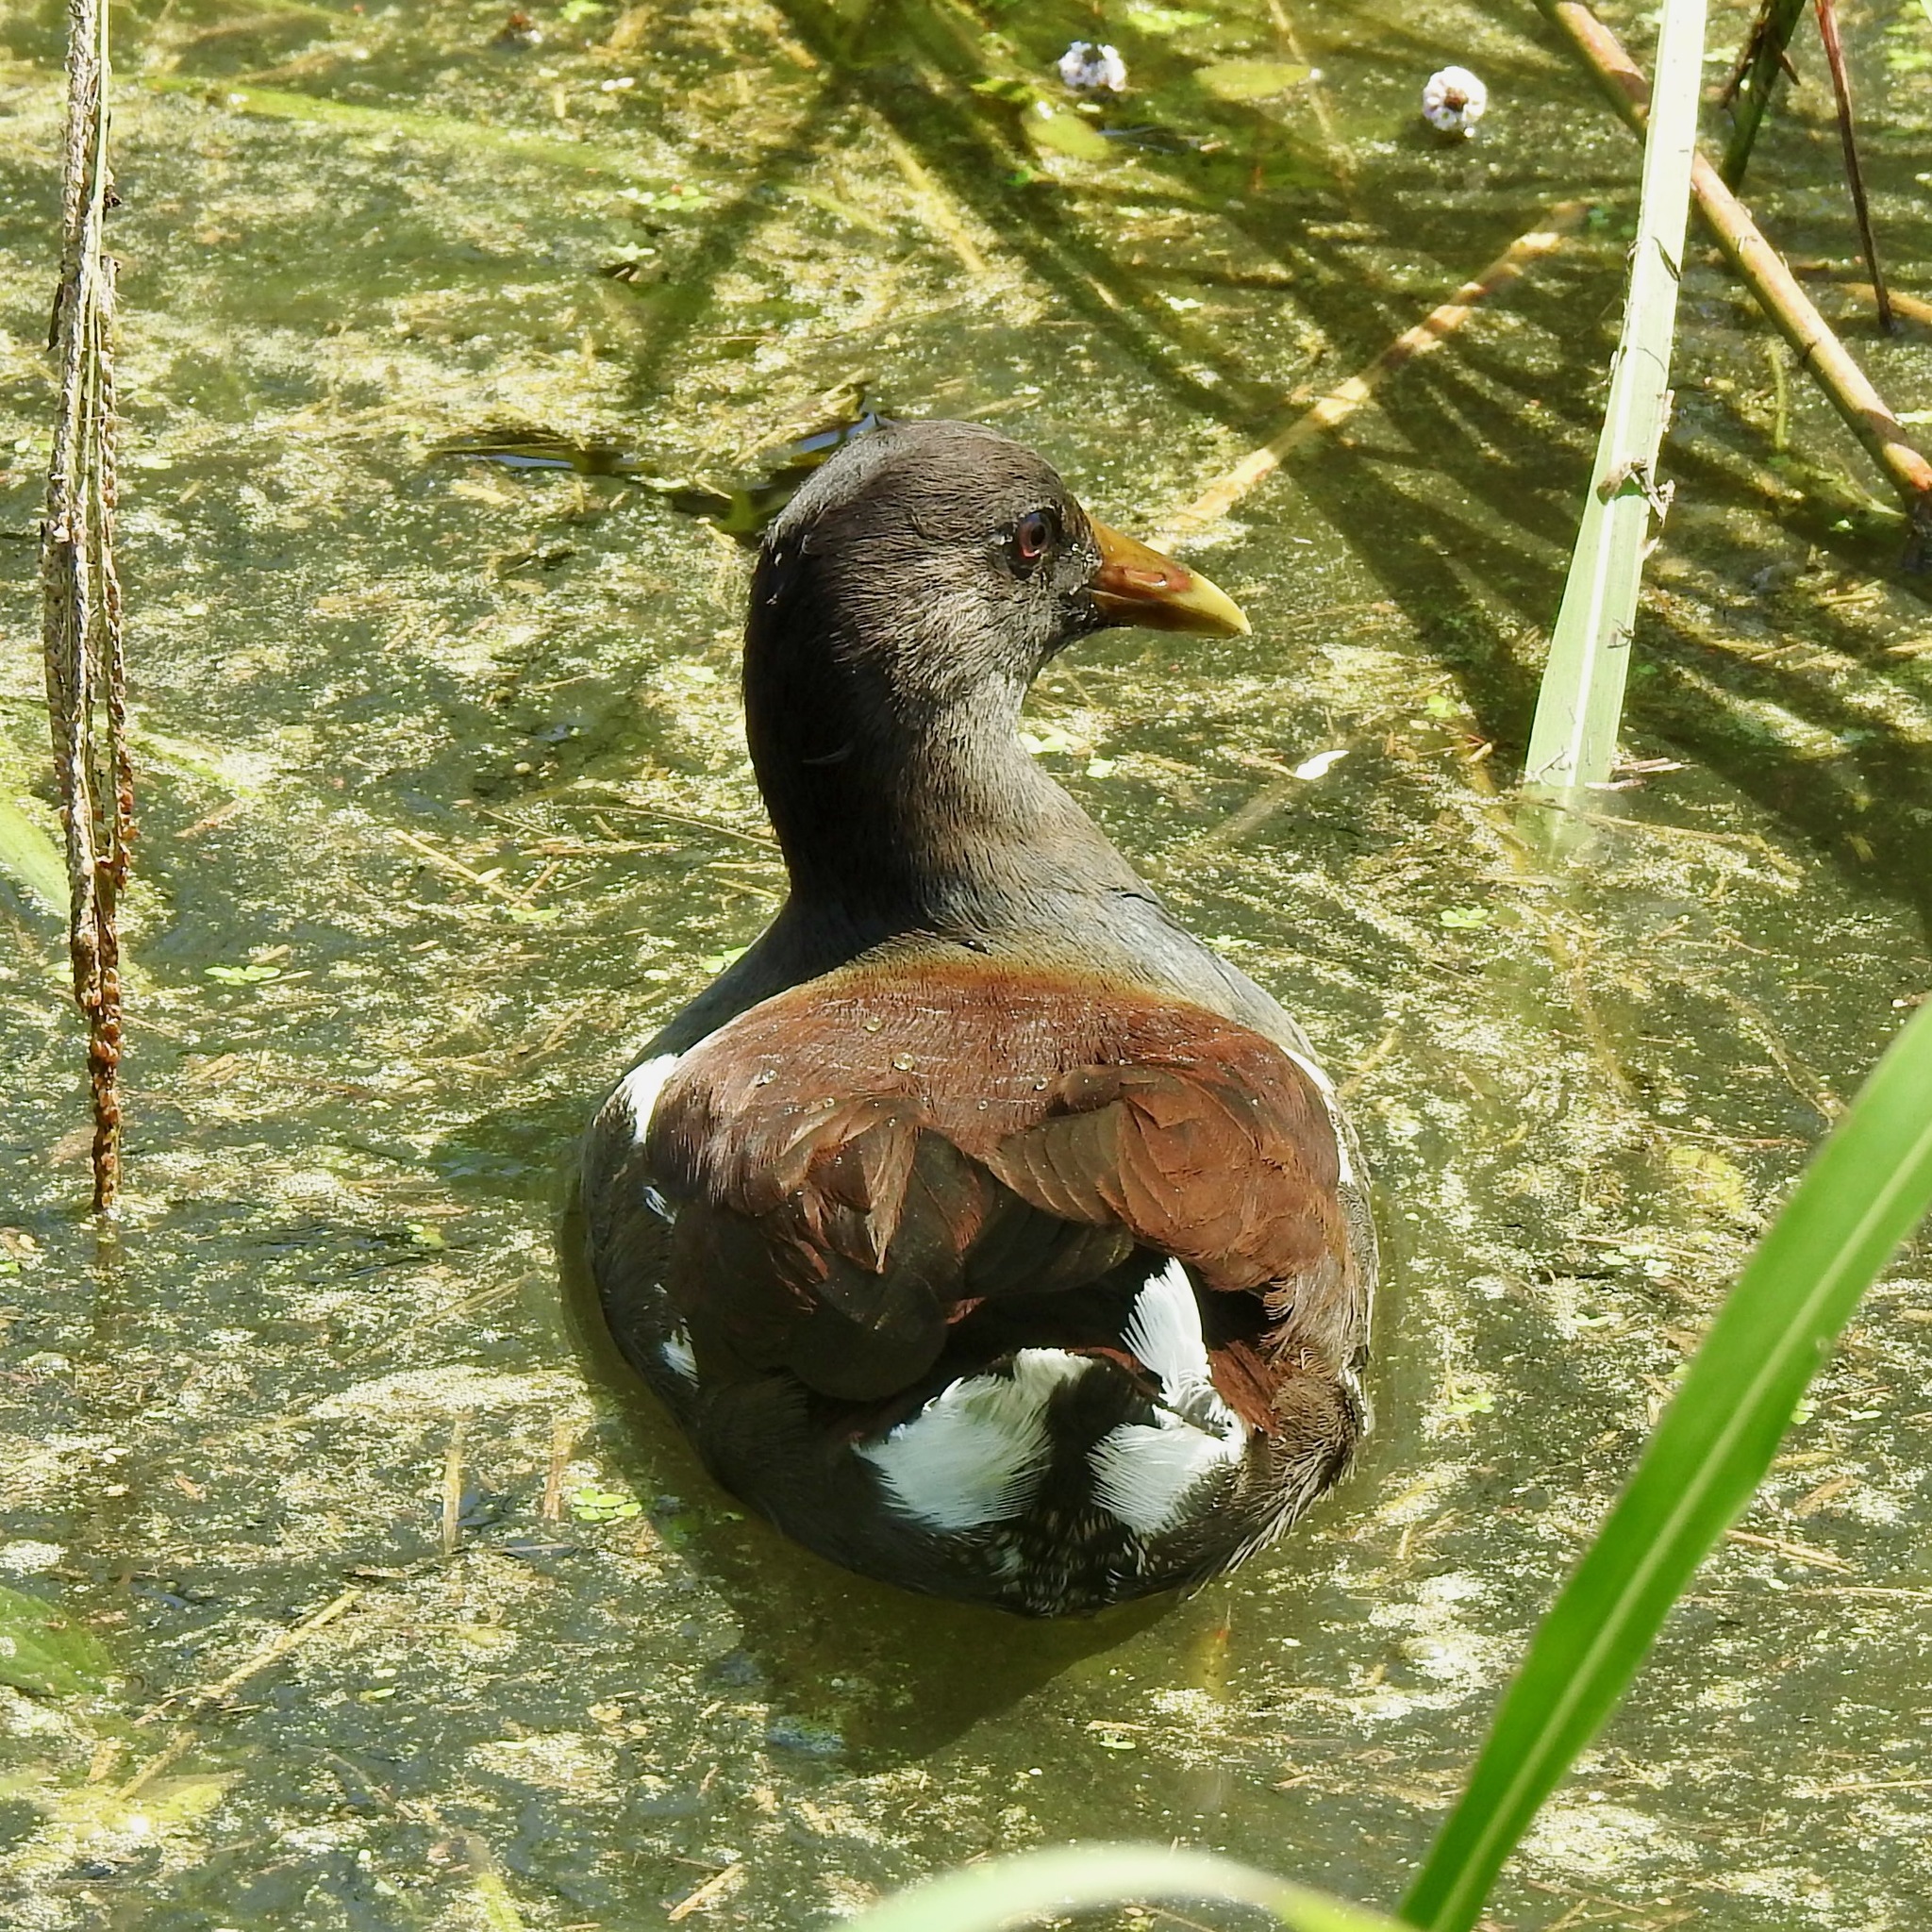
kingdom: Animalia
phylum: Chordata
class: Aves
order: Gruiformes
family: Rallidae
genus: Gallinula
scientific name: Gallinula chloropus
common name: Common moorhen
